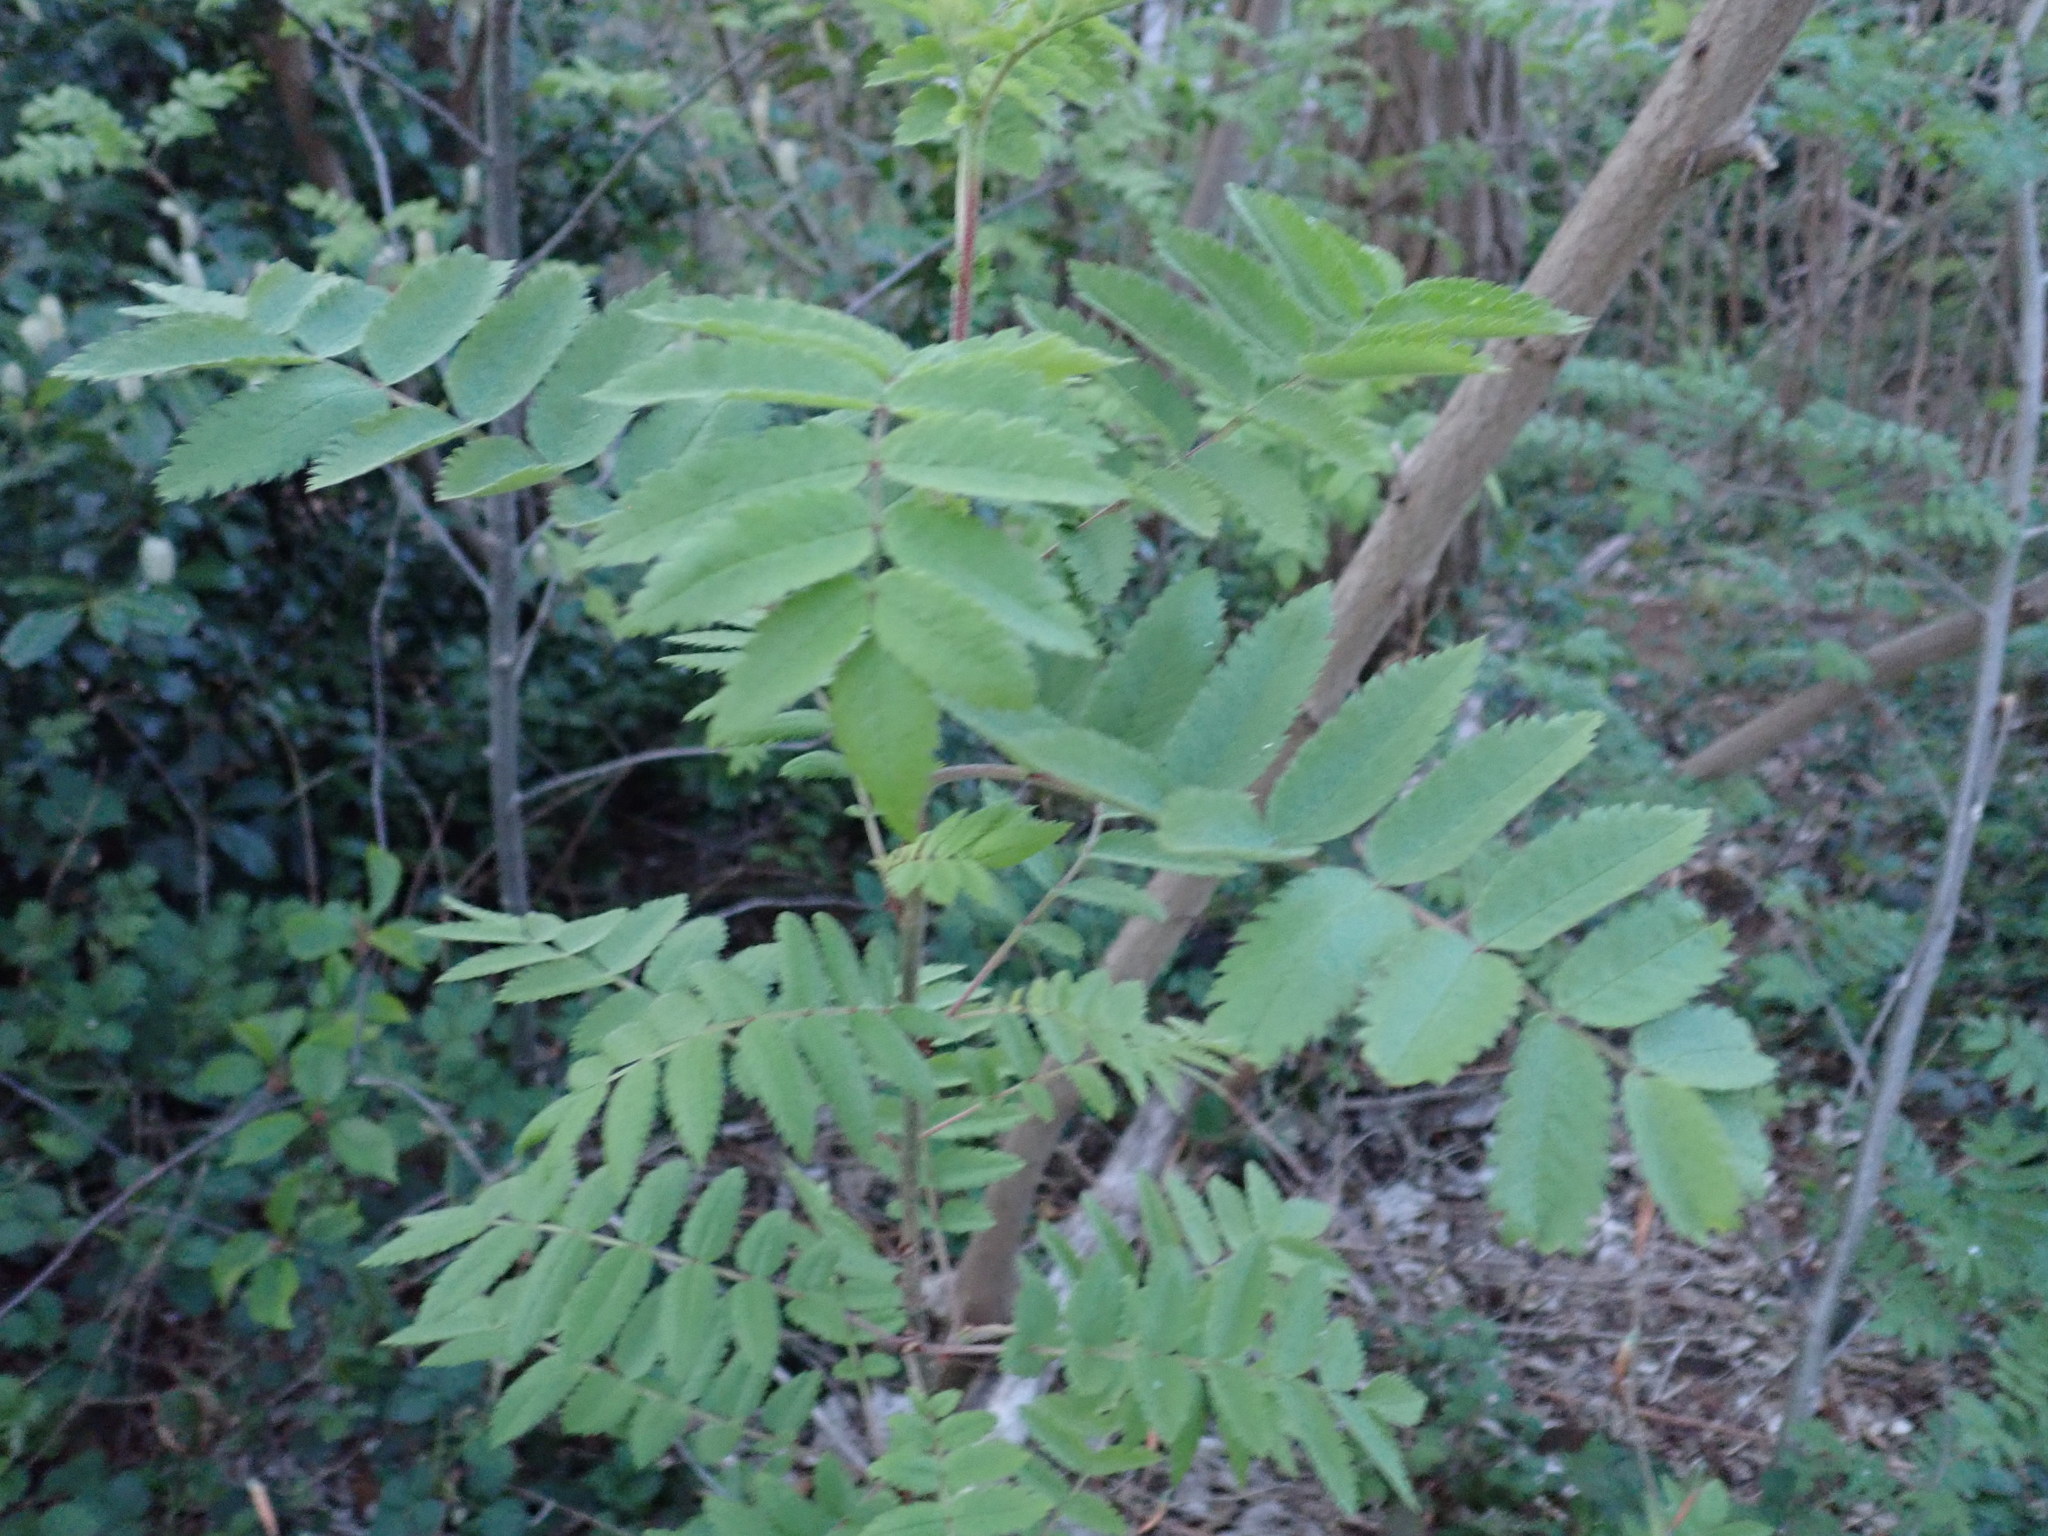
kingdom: Plantae
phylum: Tracheophyta
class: Magnoliopsida
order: Rosales
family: Rosaceae
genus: Sorbus
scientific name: Sorbus aucuparia
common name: Rowan
